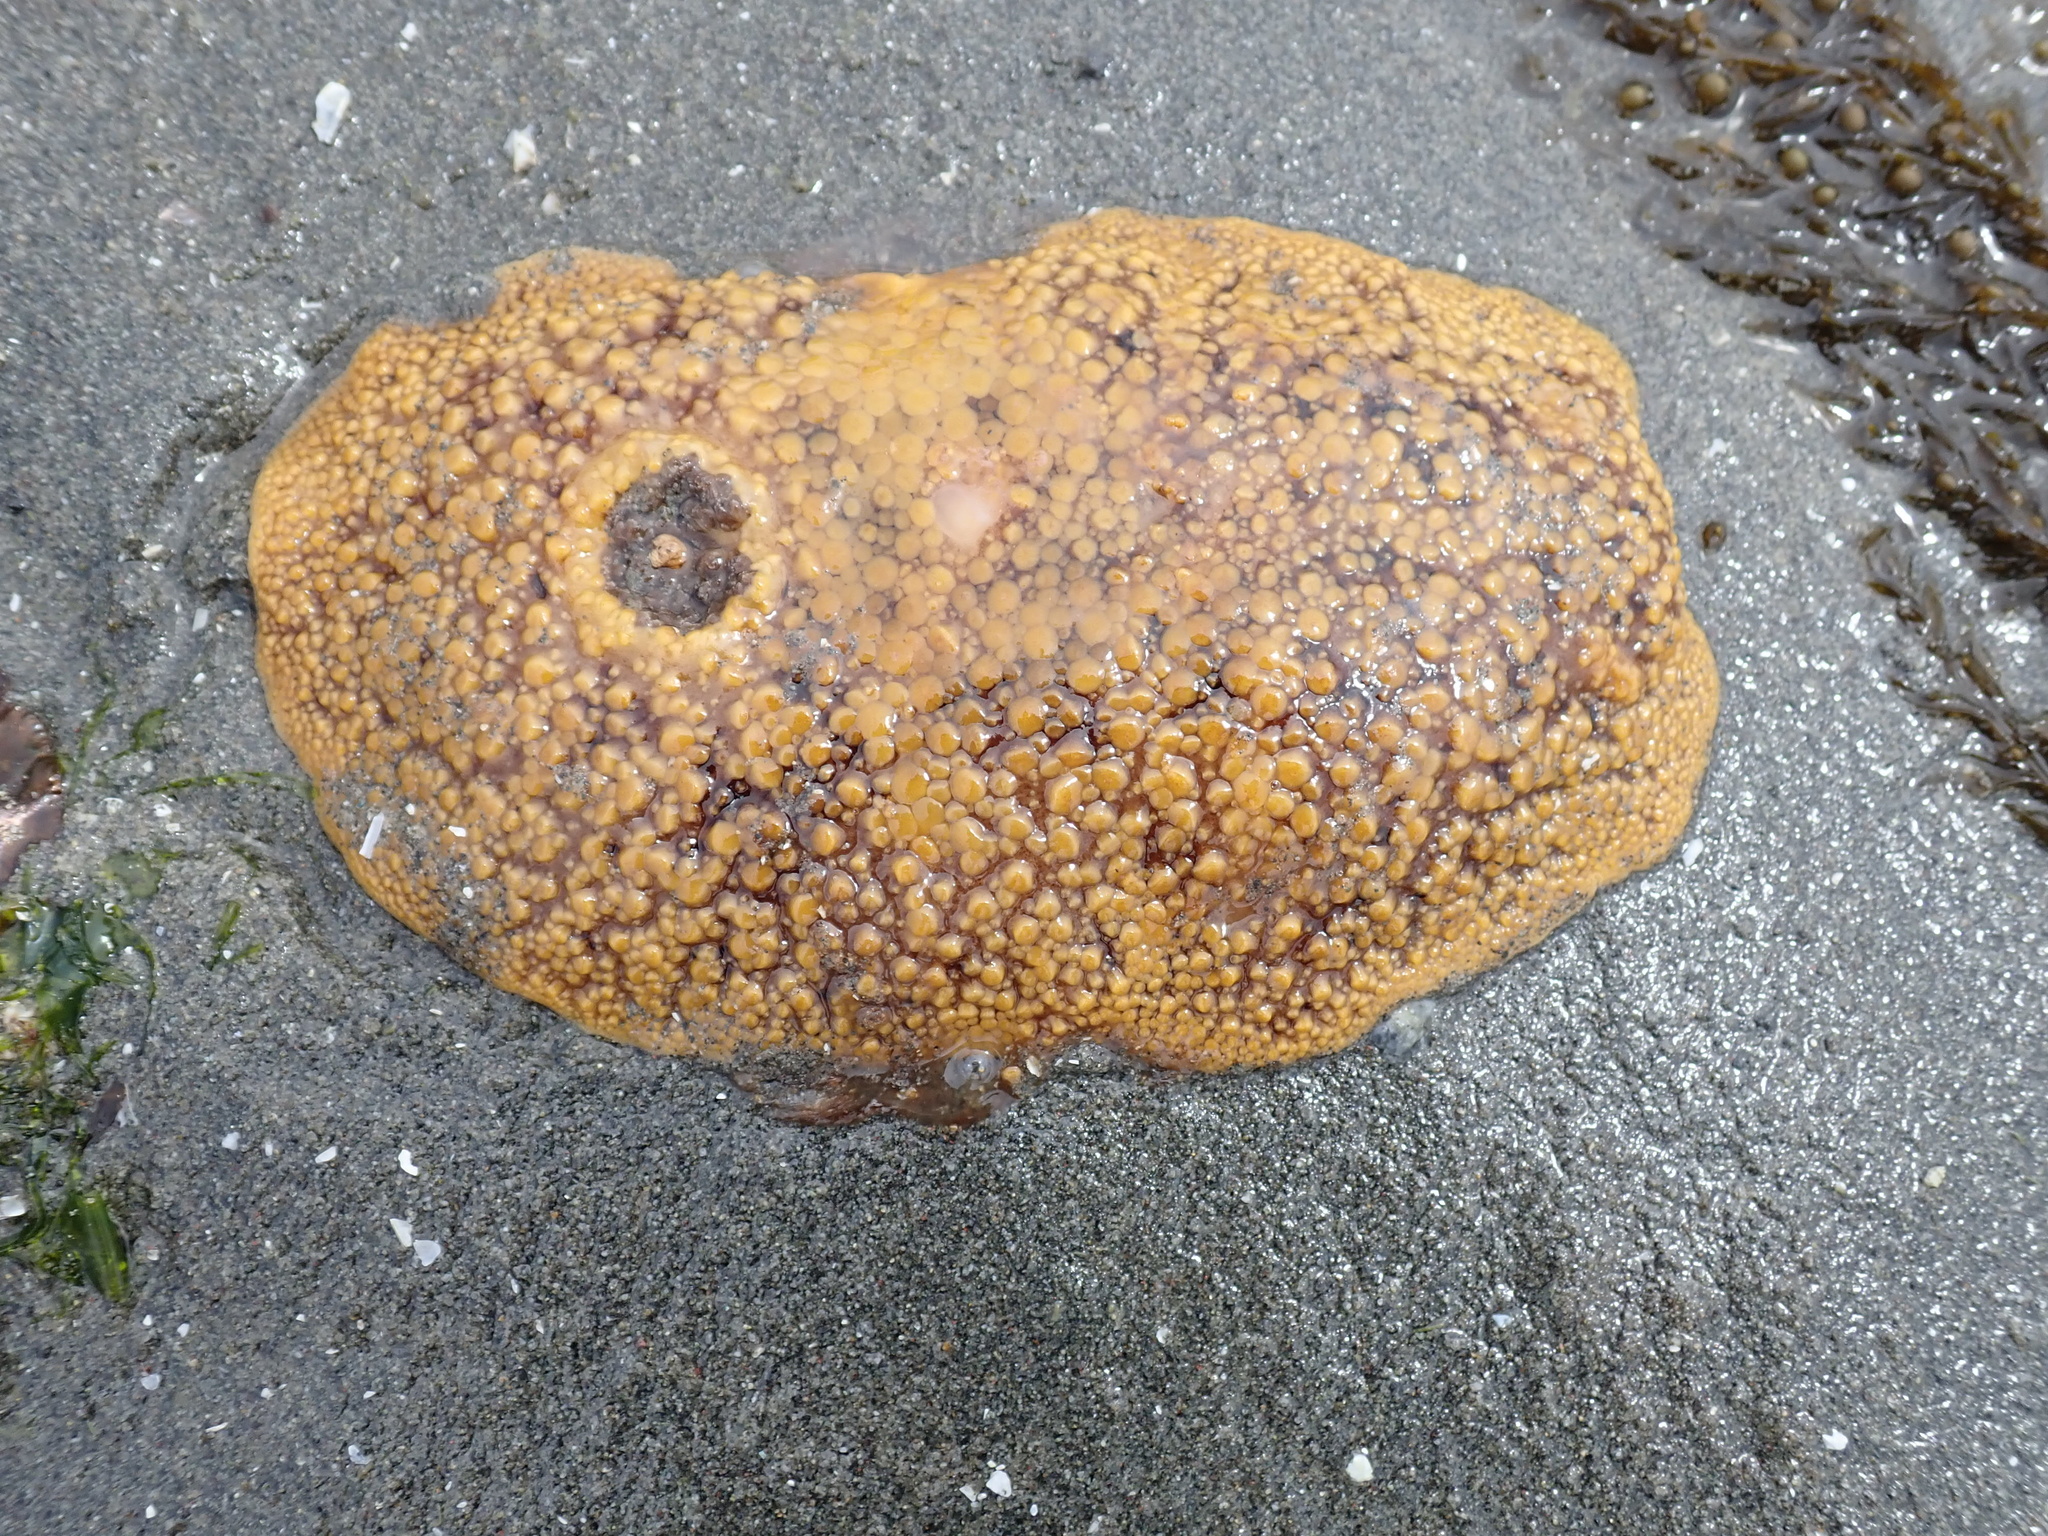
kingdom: Animalia
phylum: Mollusca
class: Gastropoda
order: Nudibranchia
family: Discodorididae
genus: Peltodoris
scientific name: Peltodoris nobilis
